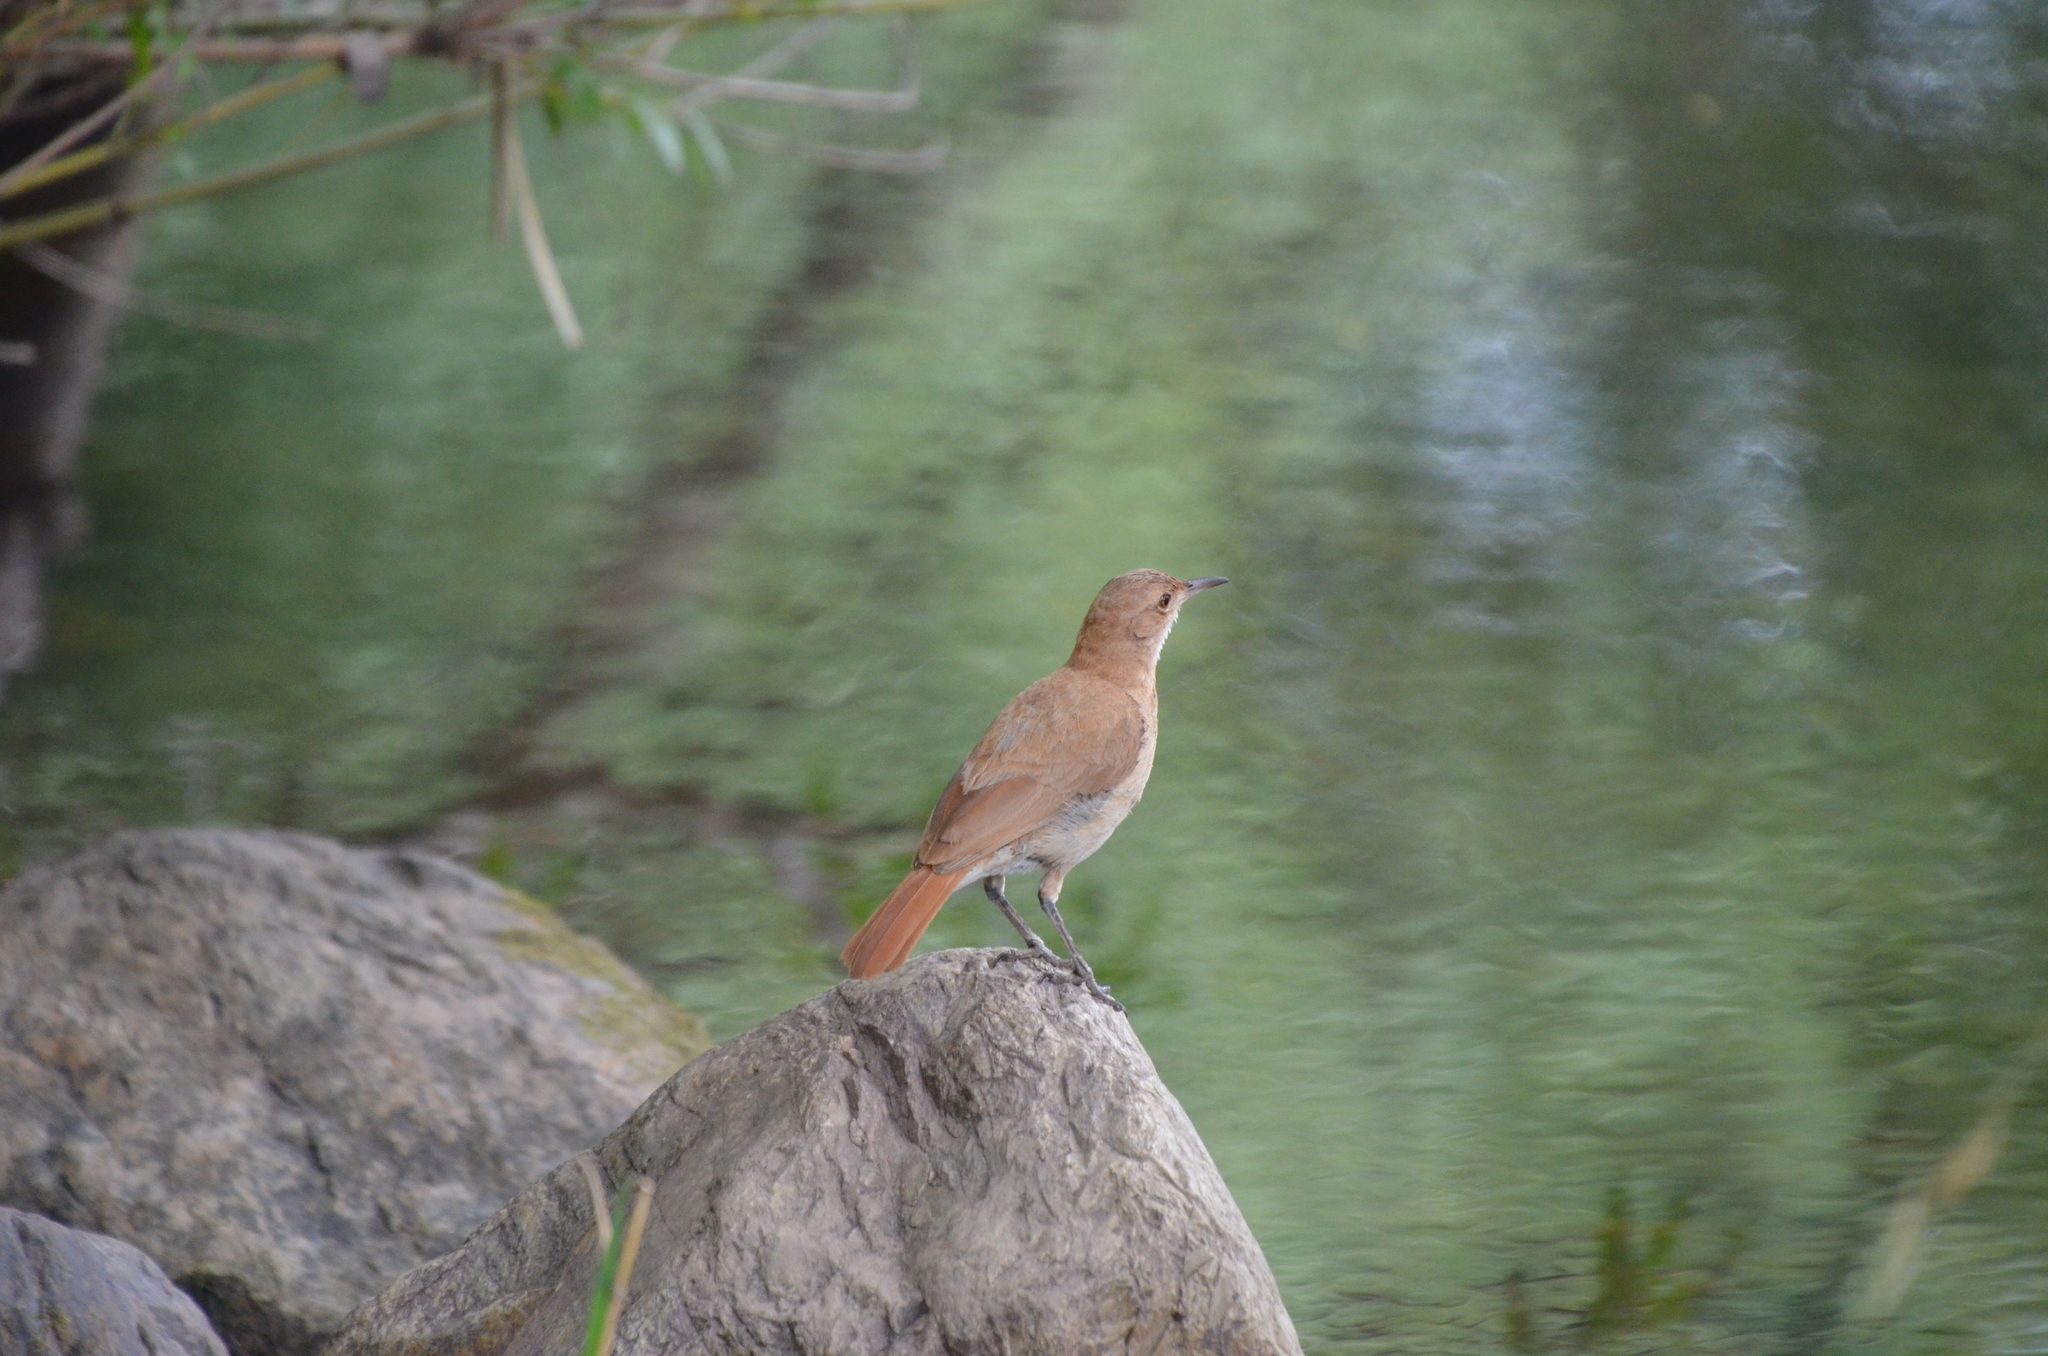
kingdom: Animalia
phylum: Chordata
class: Aves
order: Passeriformes
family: Furnariidae
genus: Furnarius
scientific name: Furnarius rufus
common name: Rufous hornero
